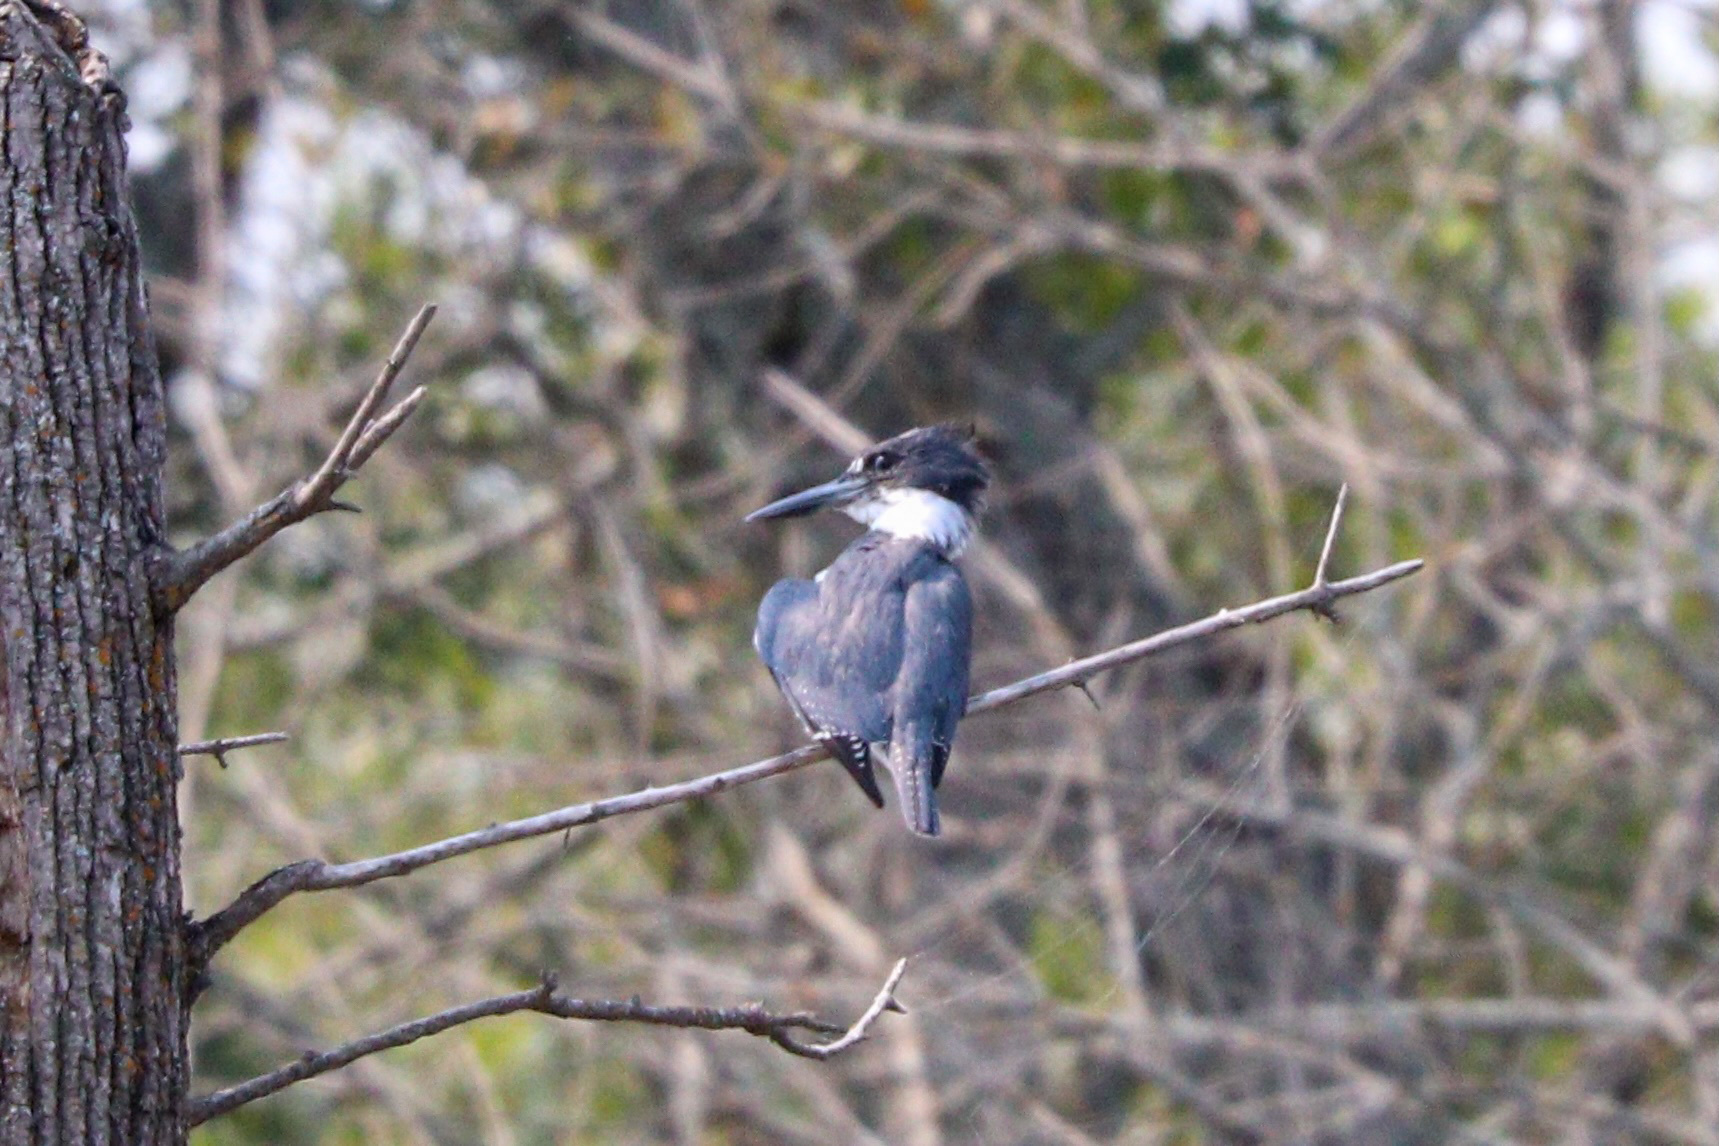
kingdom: Animalia
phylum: Chordata
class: Aves
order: Coraciiformes
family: Alcedinidae
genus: Megaceryle
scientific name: Megaceryle alcyon
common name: Belted kingfisher
